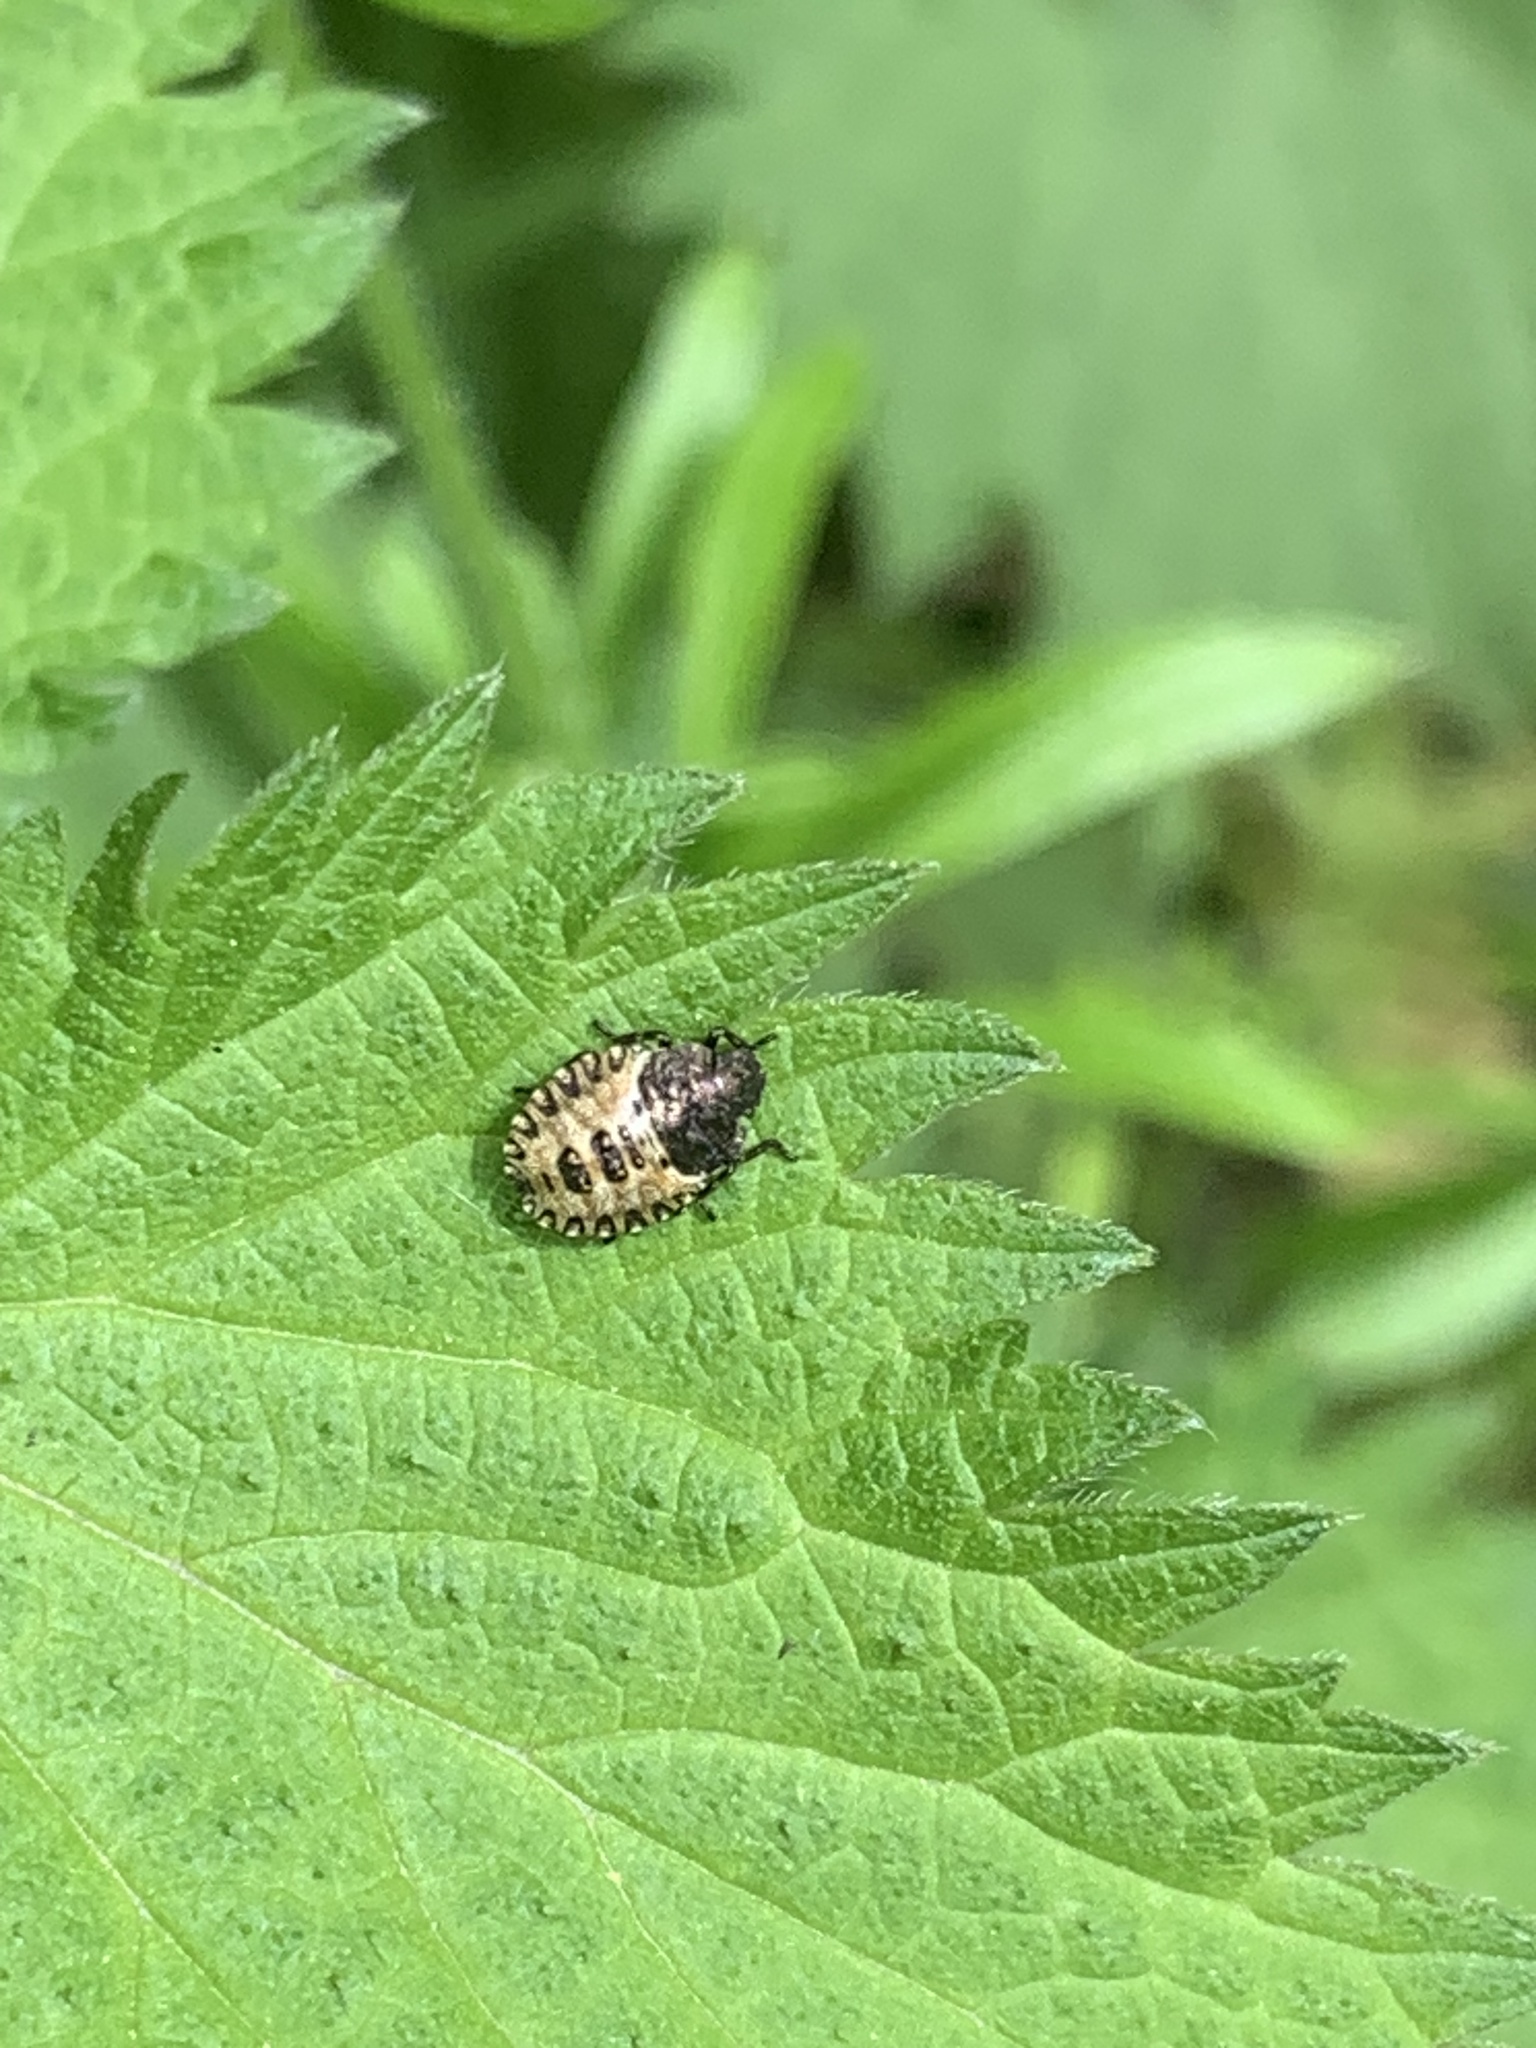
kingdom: Animalia
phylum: Arthropoda
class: Insecta
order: Hemiptera
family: Pentatomidae
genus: Pentatoma
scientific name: Pentatoma rufipes
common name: Forest bug
